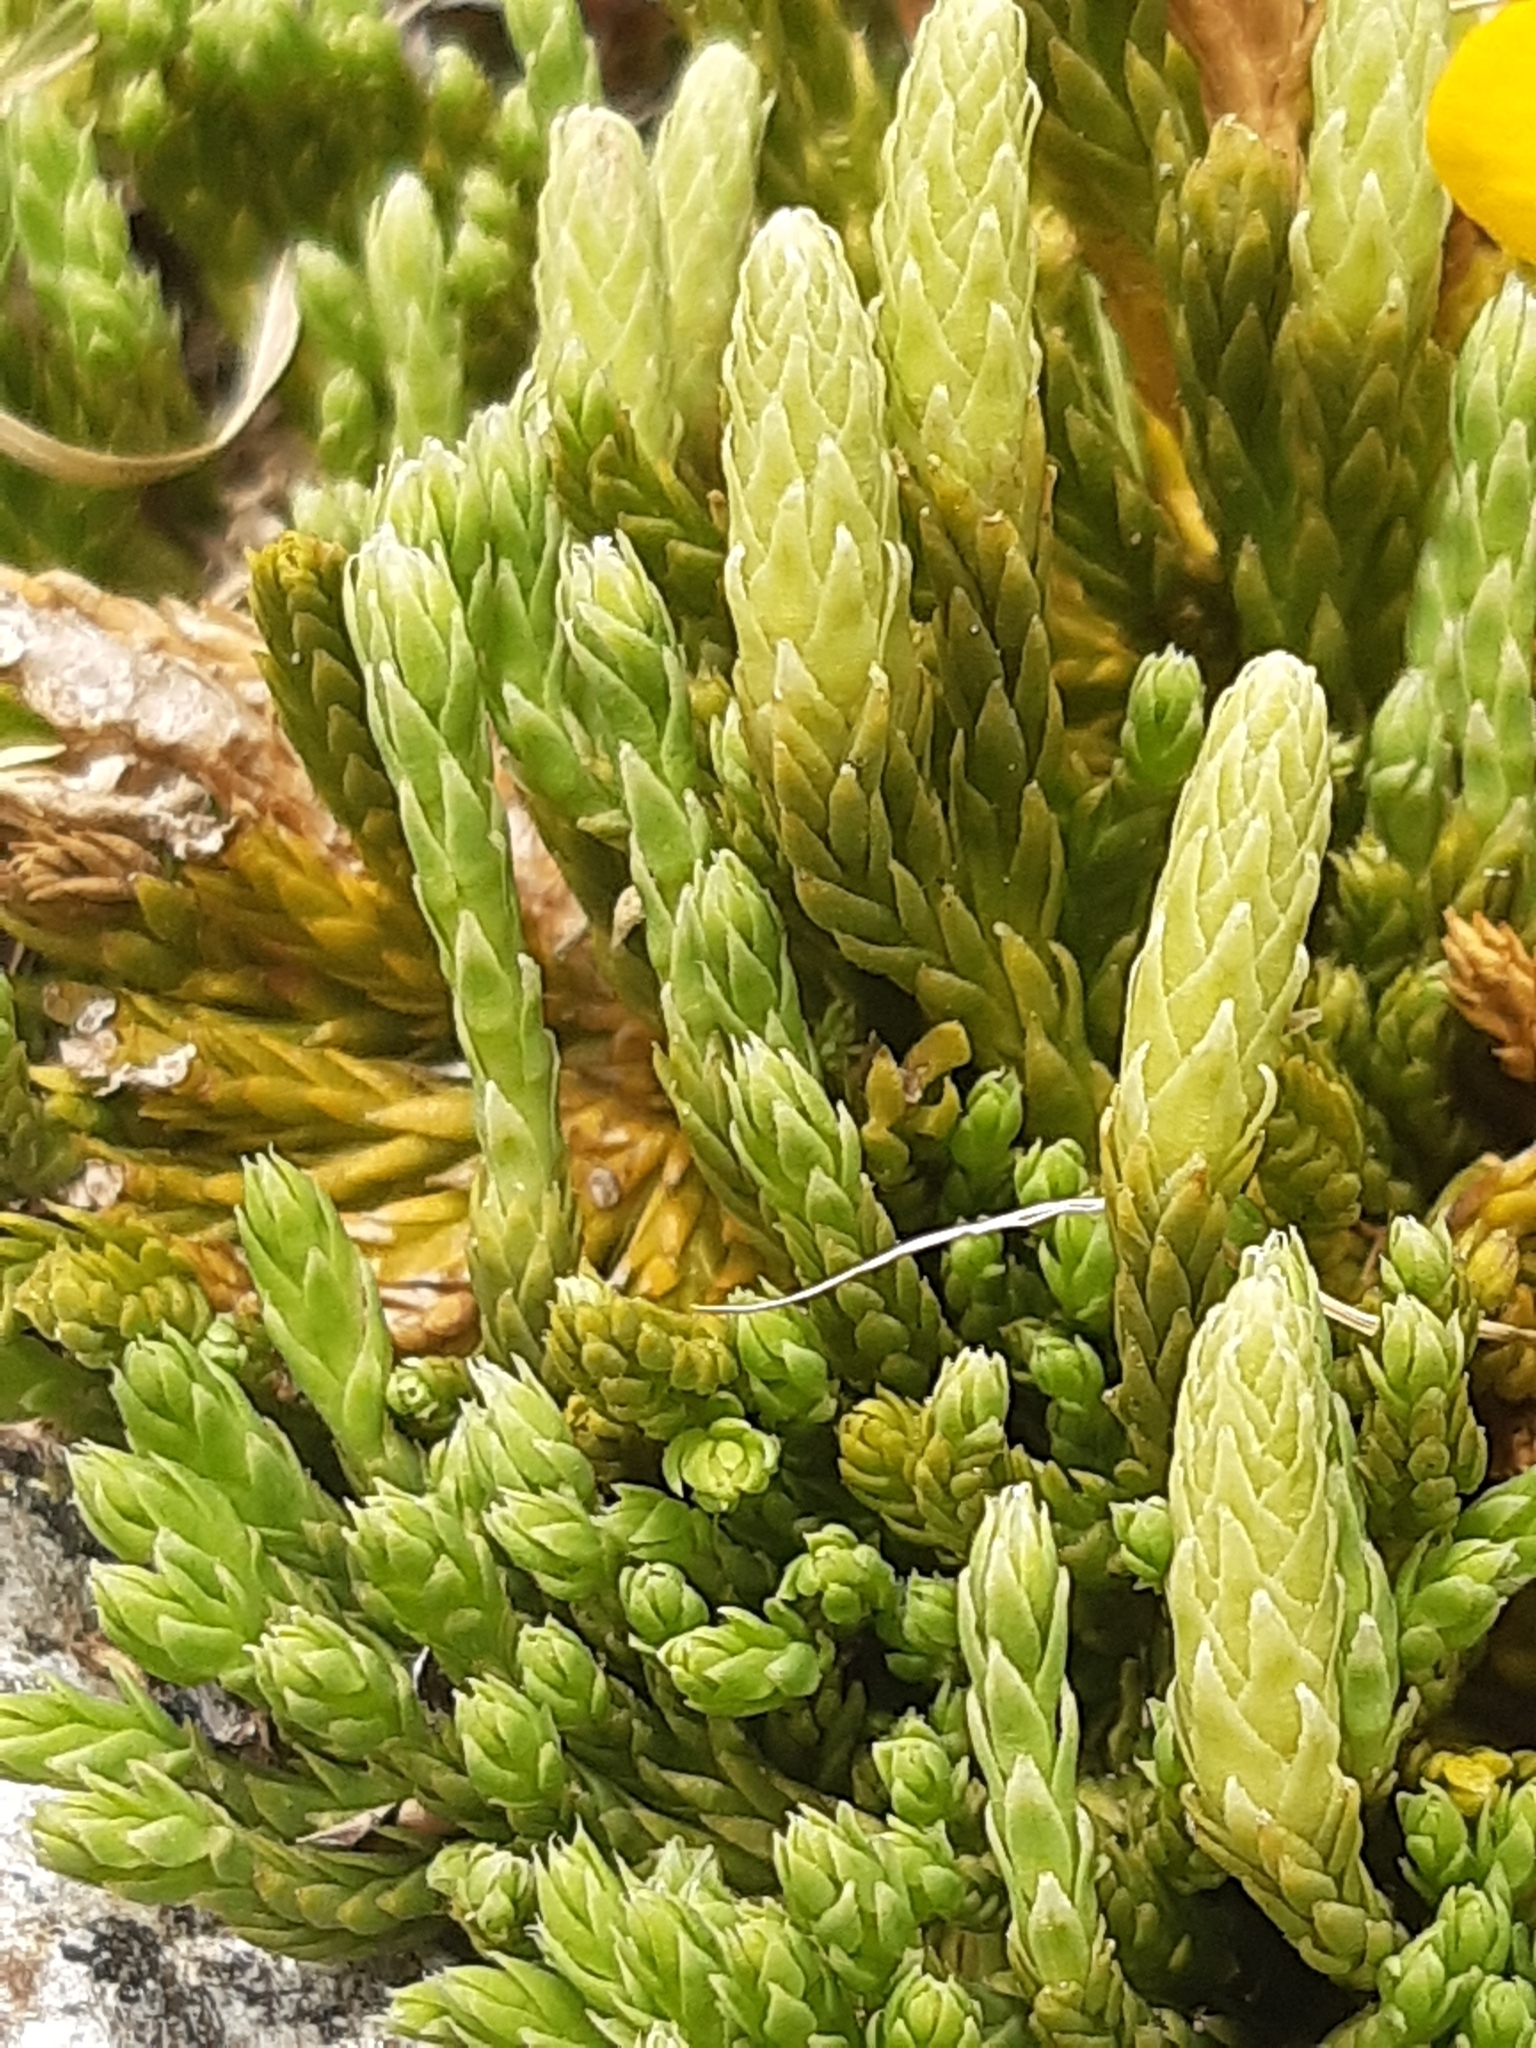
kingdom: Plantae
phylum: Tracheophyta
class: Lycopodiopsida
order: Lycopodiales
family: Lycopodiaceae
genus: Diphasiastrum
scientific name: Diphasiastrum alpinum
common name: Alpine clubmoss
